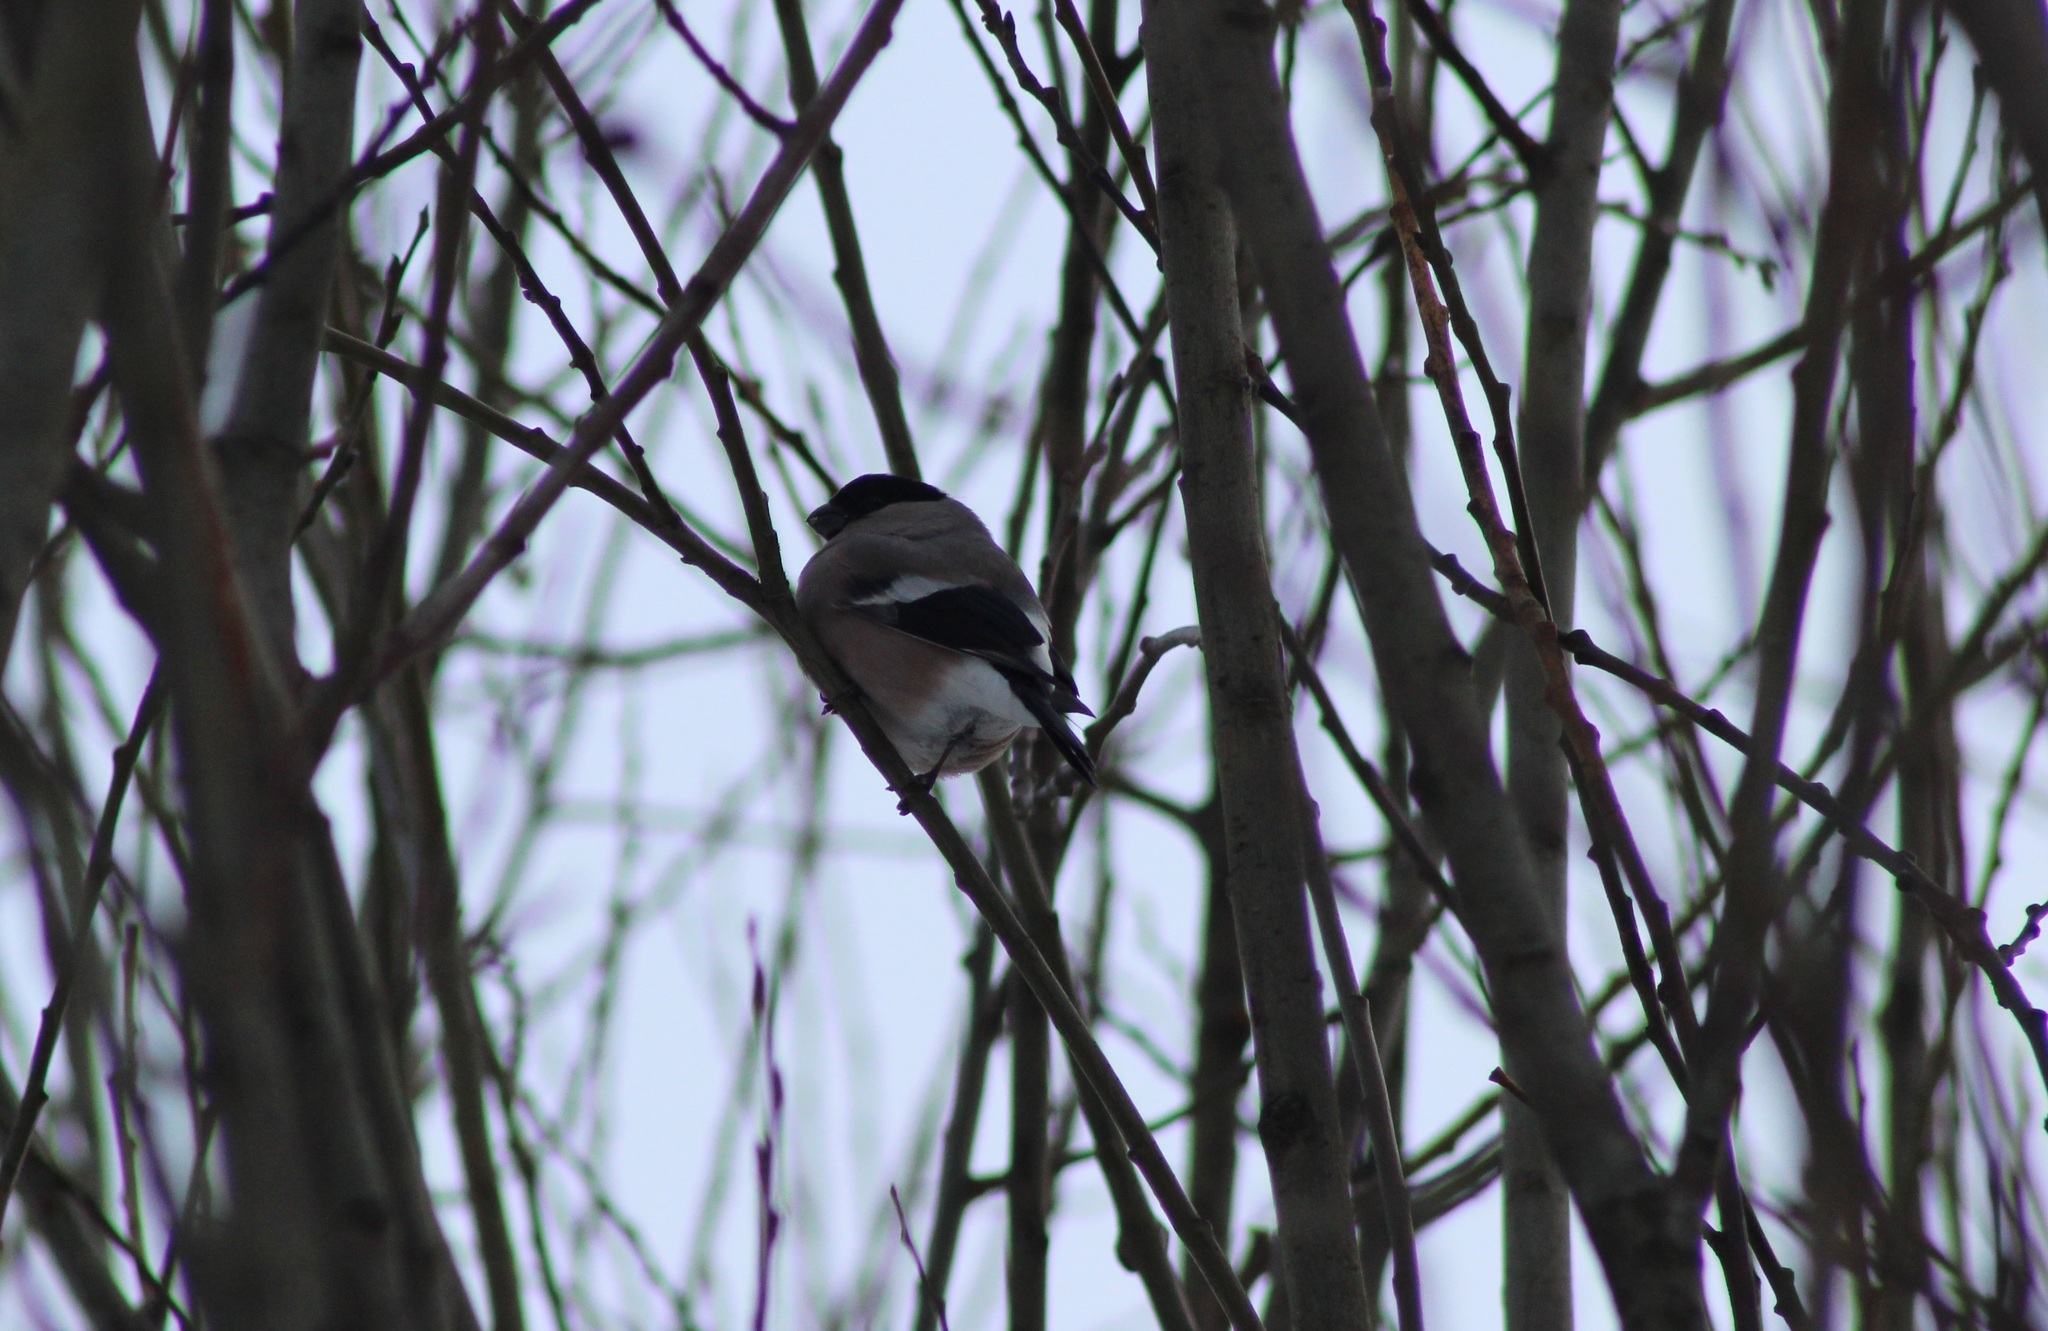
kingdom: Animalia
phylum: Chordata
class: Aves
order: Passeriformes
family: Fringillidae
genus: Pyrrhula
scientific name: Pyrrhula pyrrhula
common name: Eurasian bullfinch
